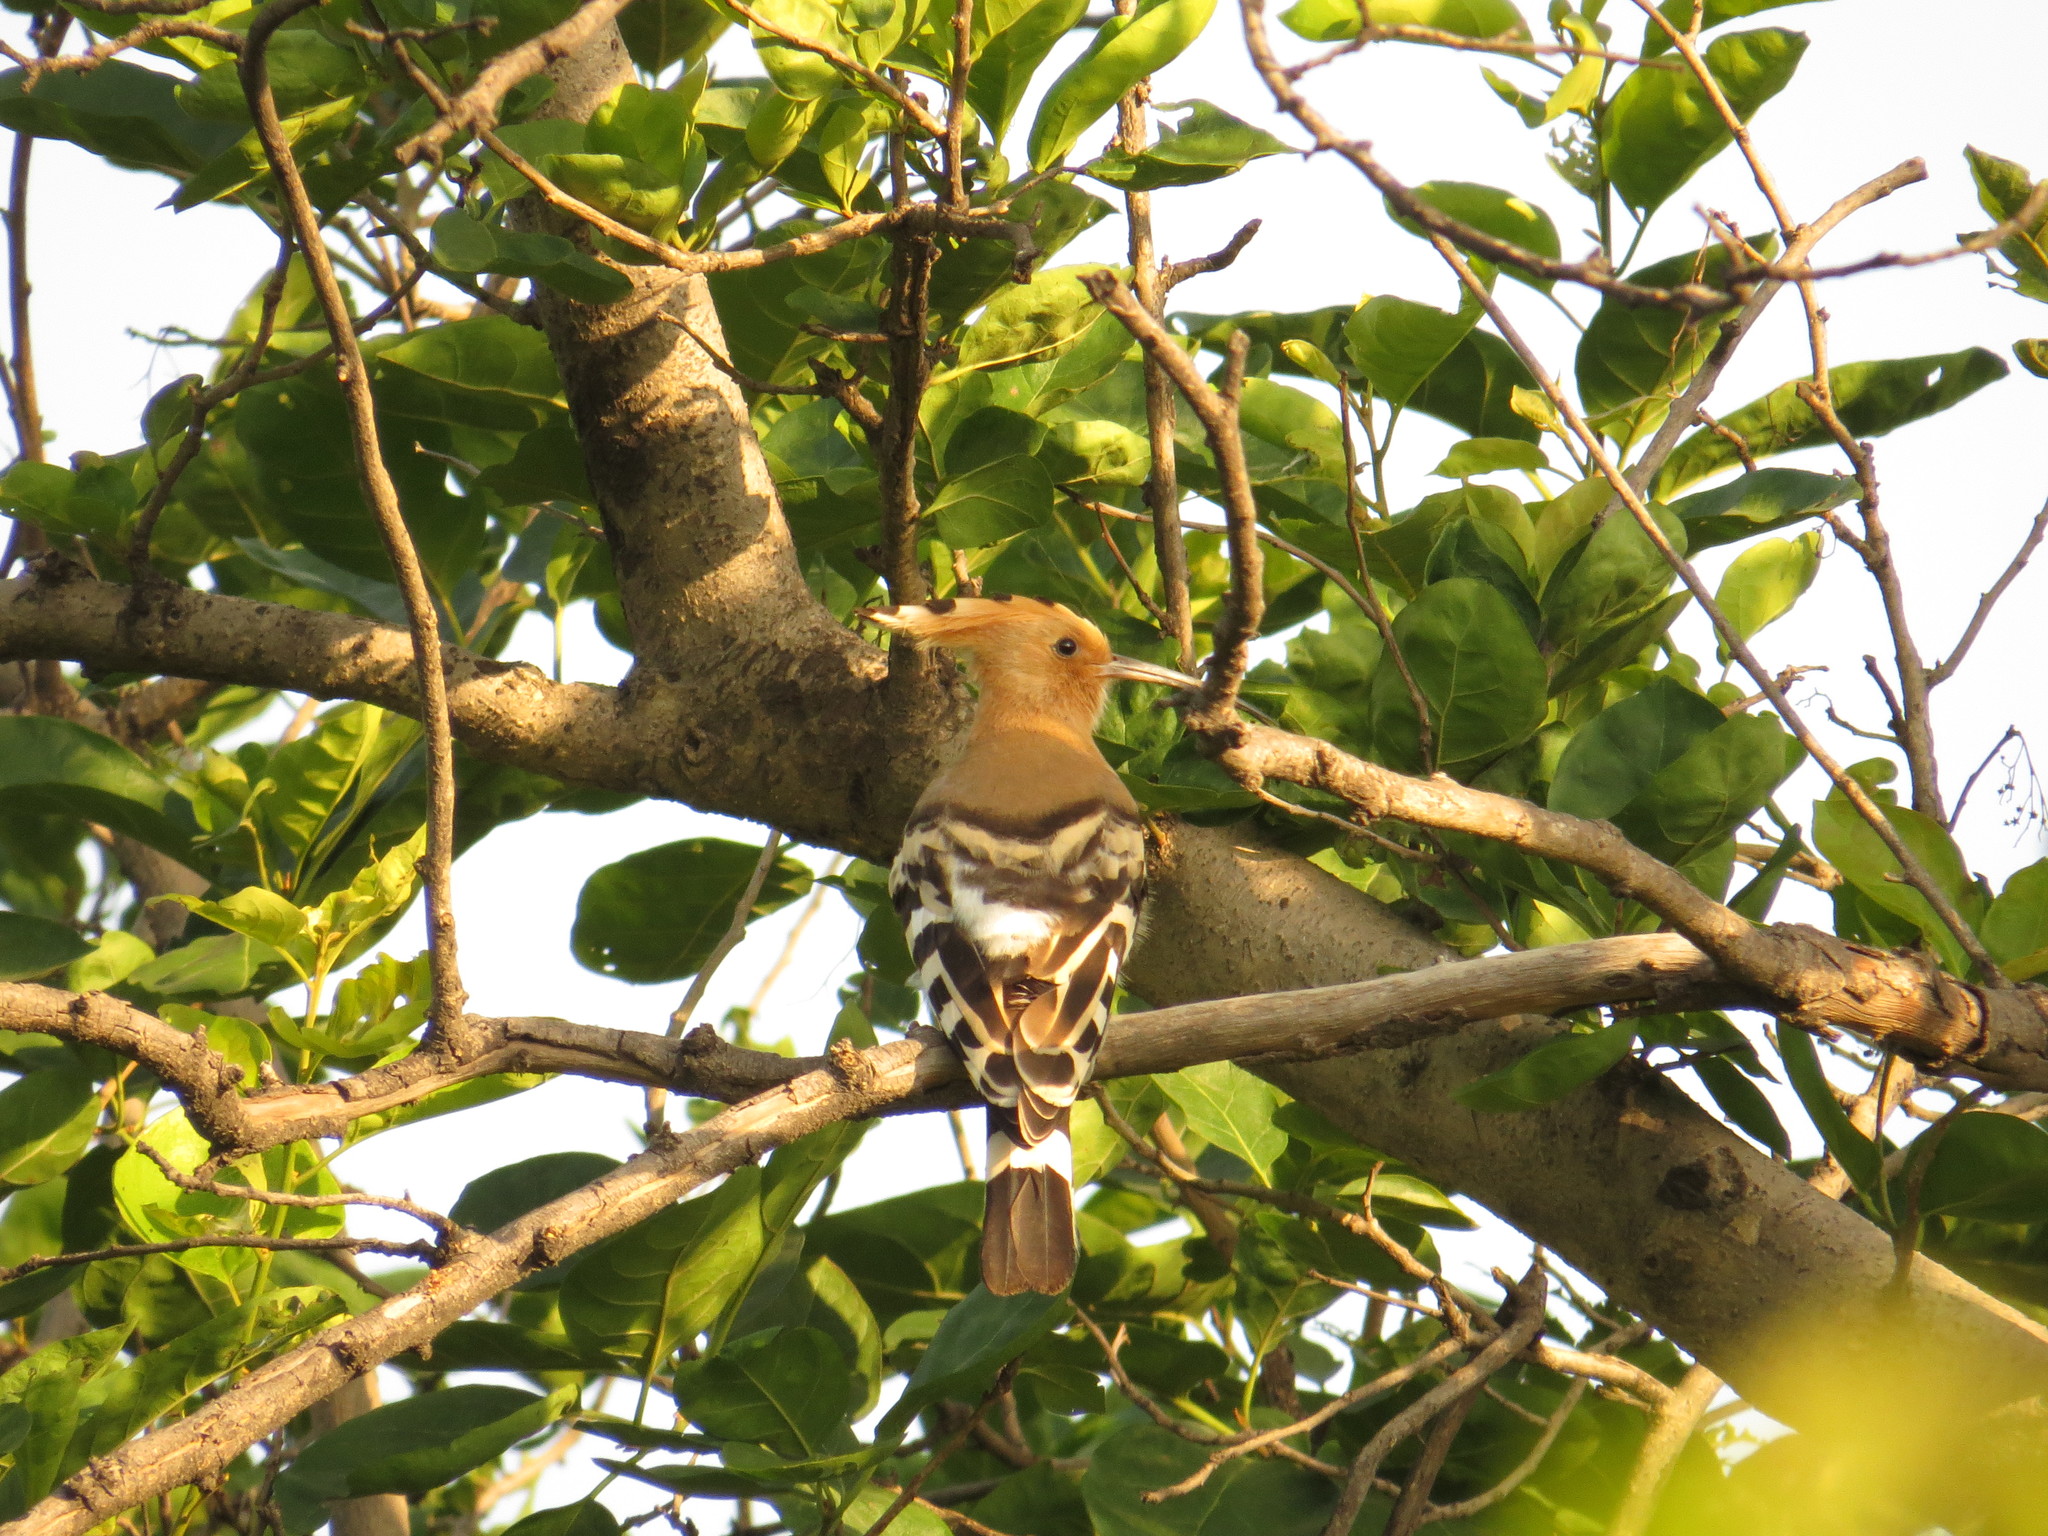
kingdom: Animalia
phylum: Chordata
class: Aves
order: Bucerotiformes
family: Upupidae
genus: Upupa
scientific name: Upupa epops
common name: Eurasian hoopoe
